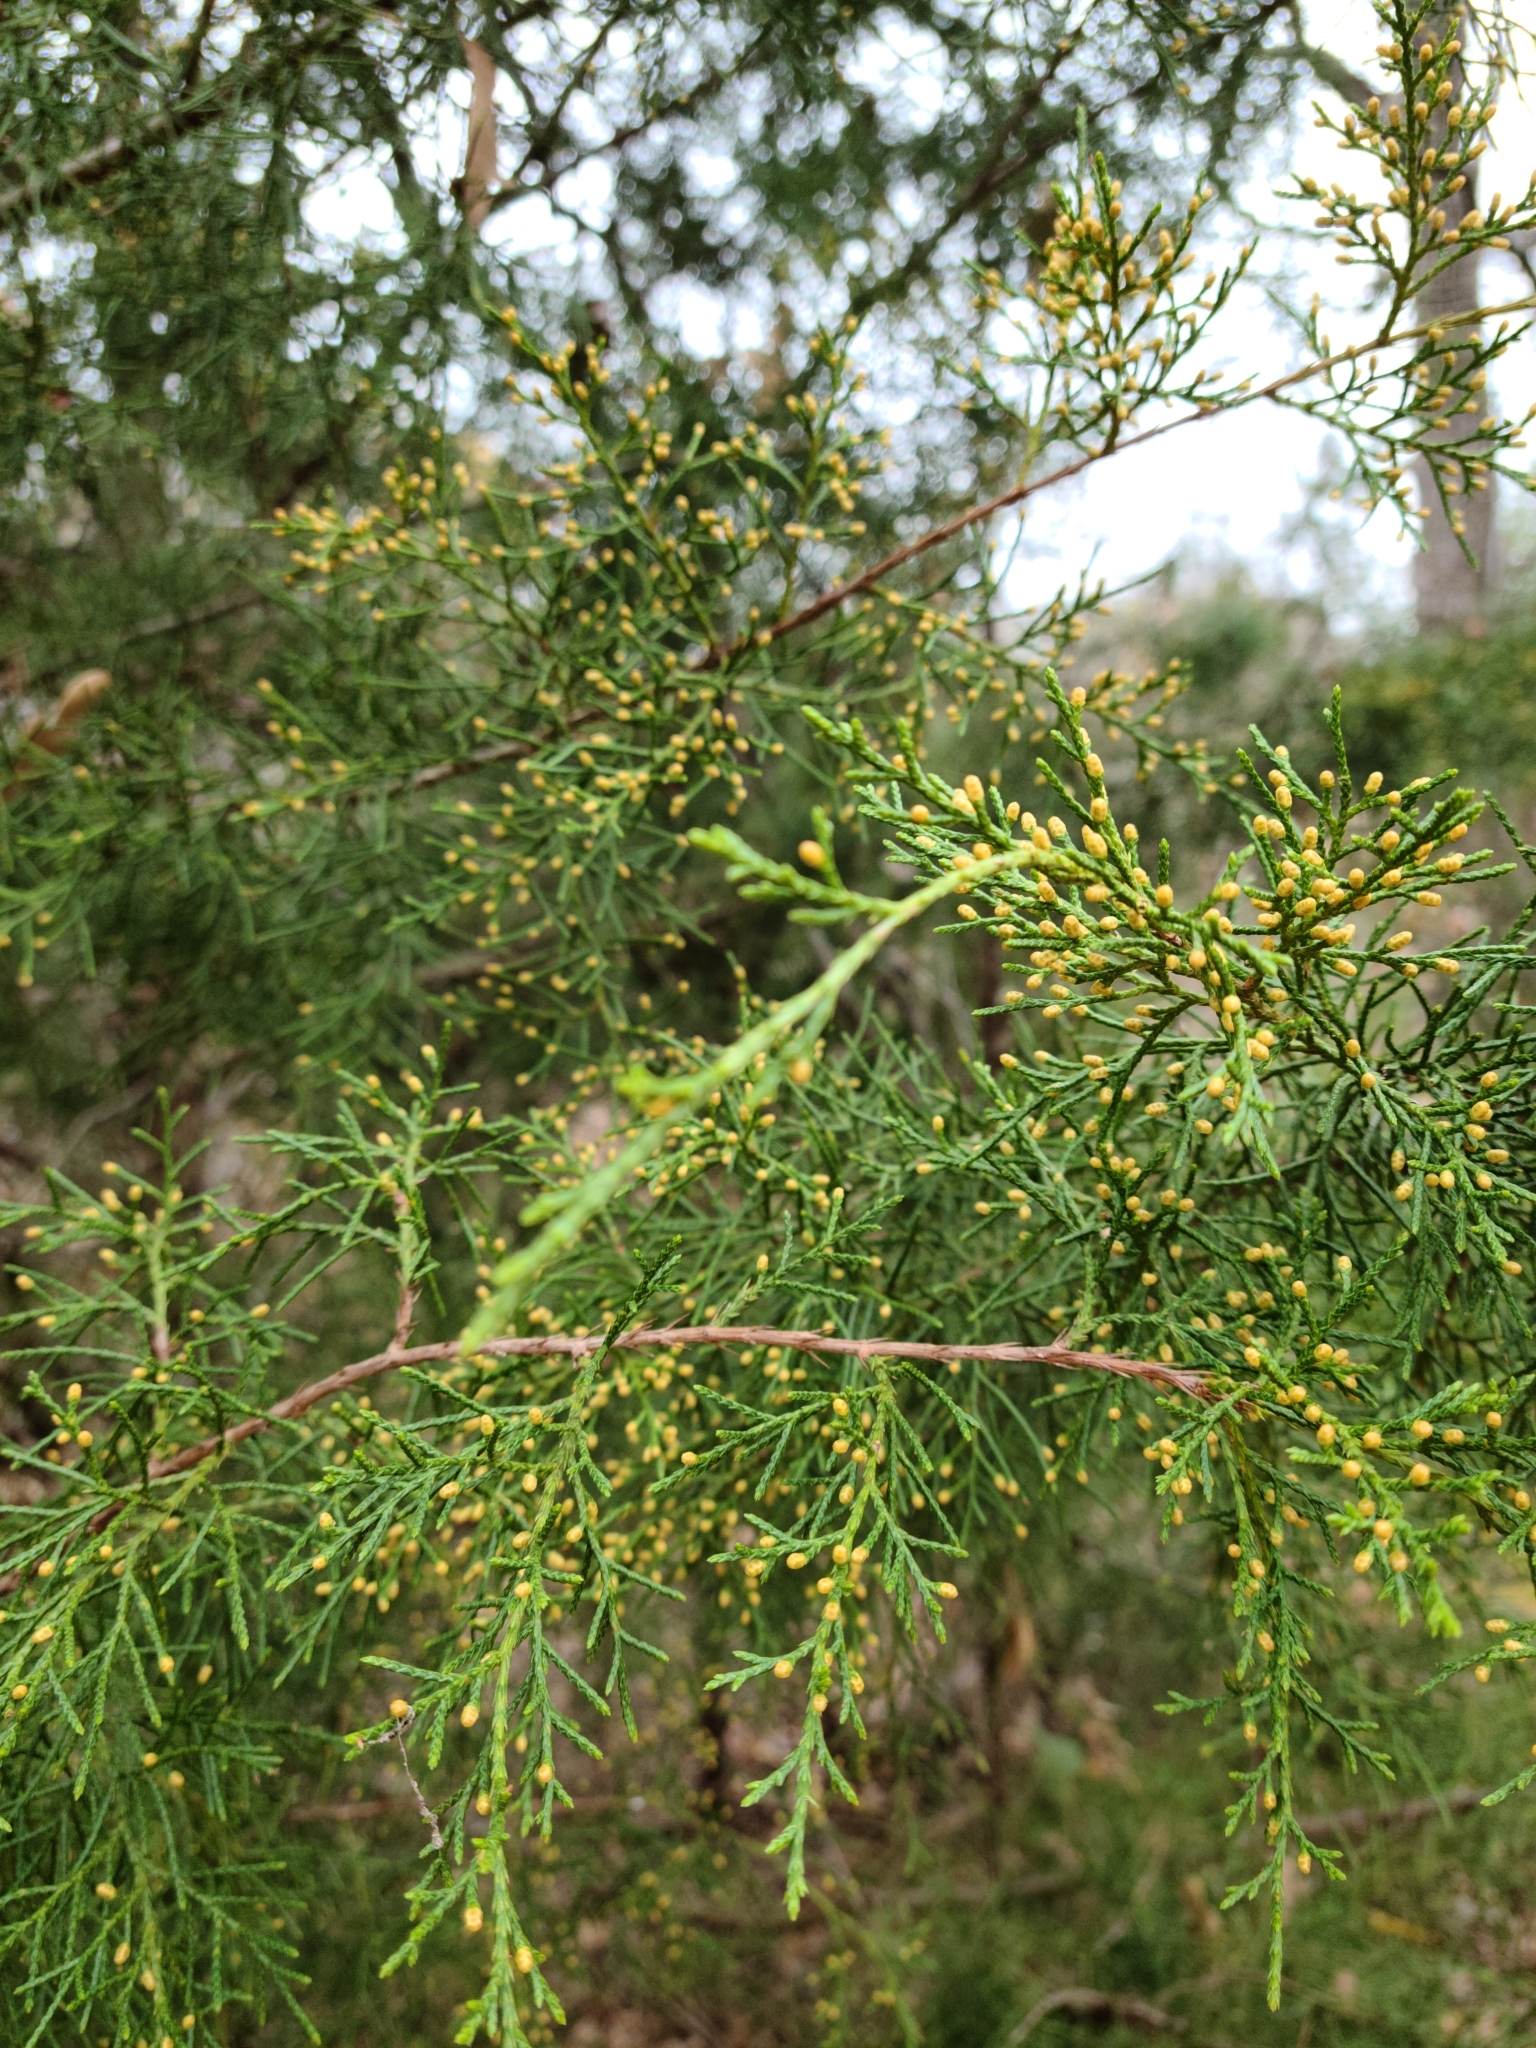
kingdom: Plantae
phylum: Tracheophyta
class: Pinopsida
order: Pinales
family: Cupressaceae
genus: Juniperus
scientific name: Juniperus virginiana
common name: Red juniper
